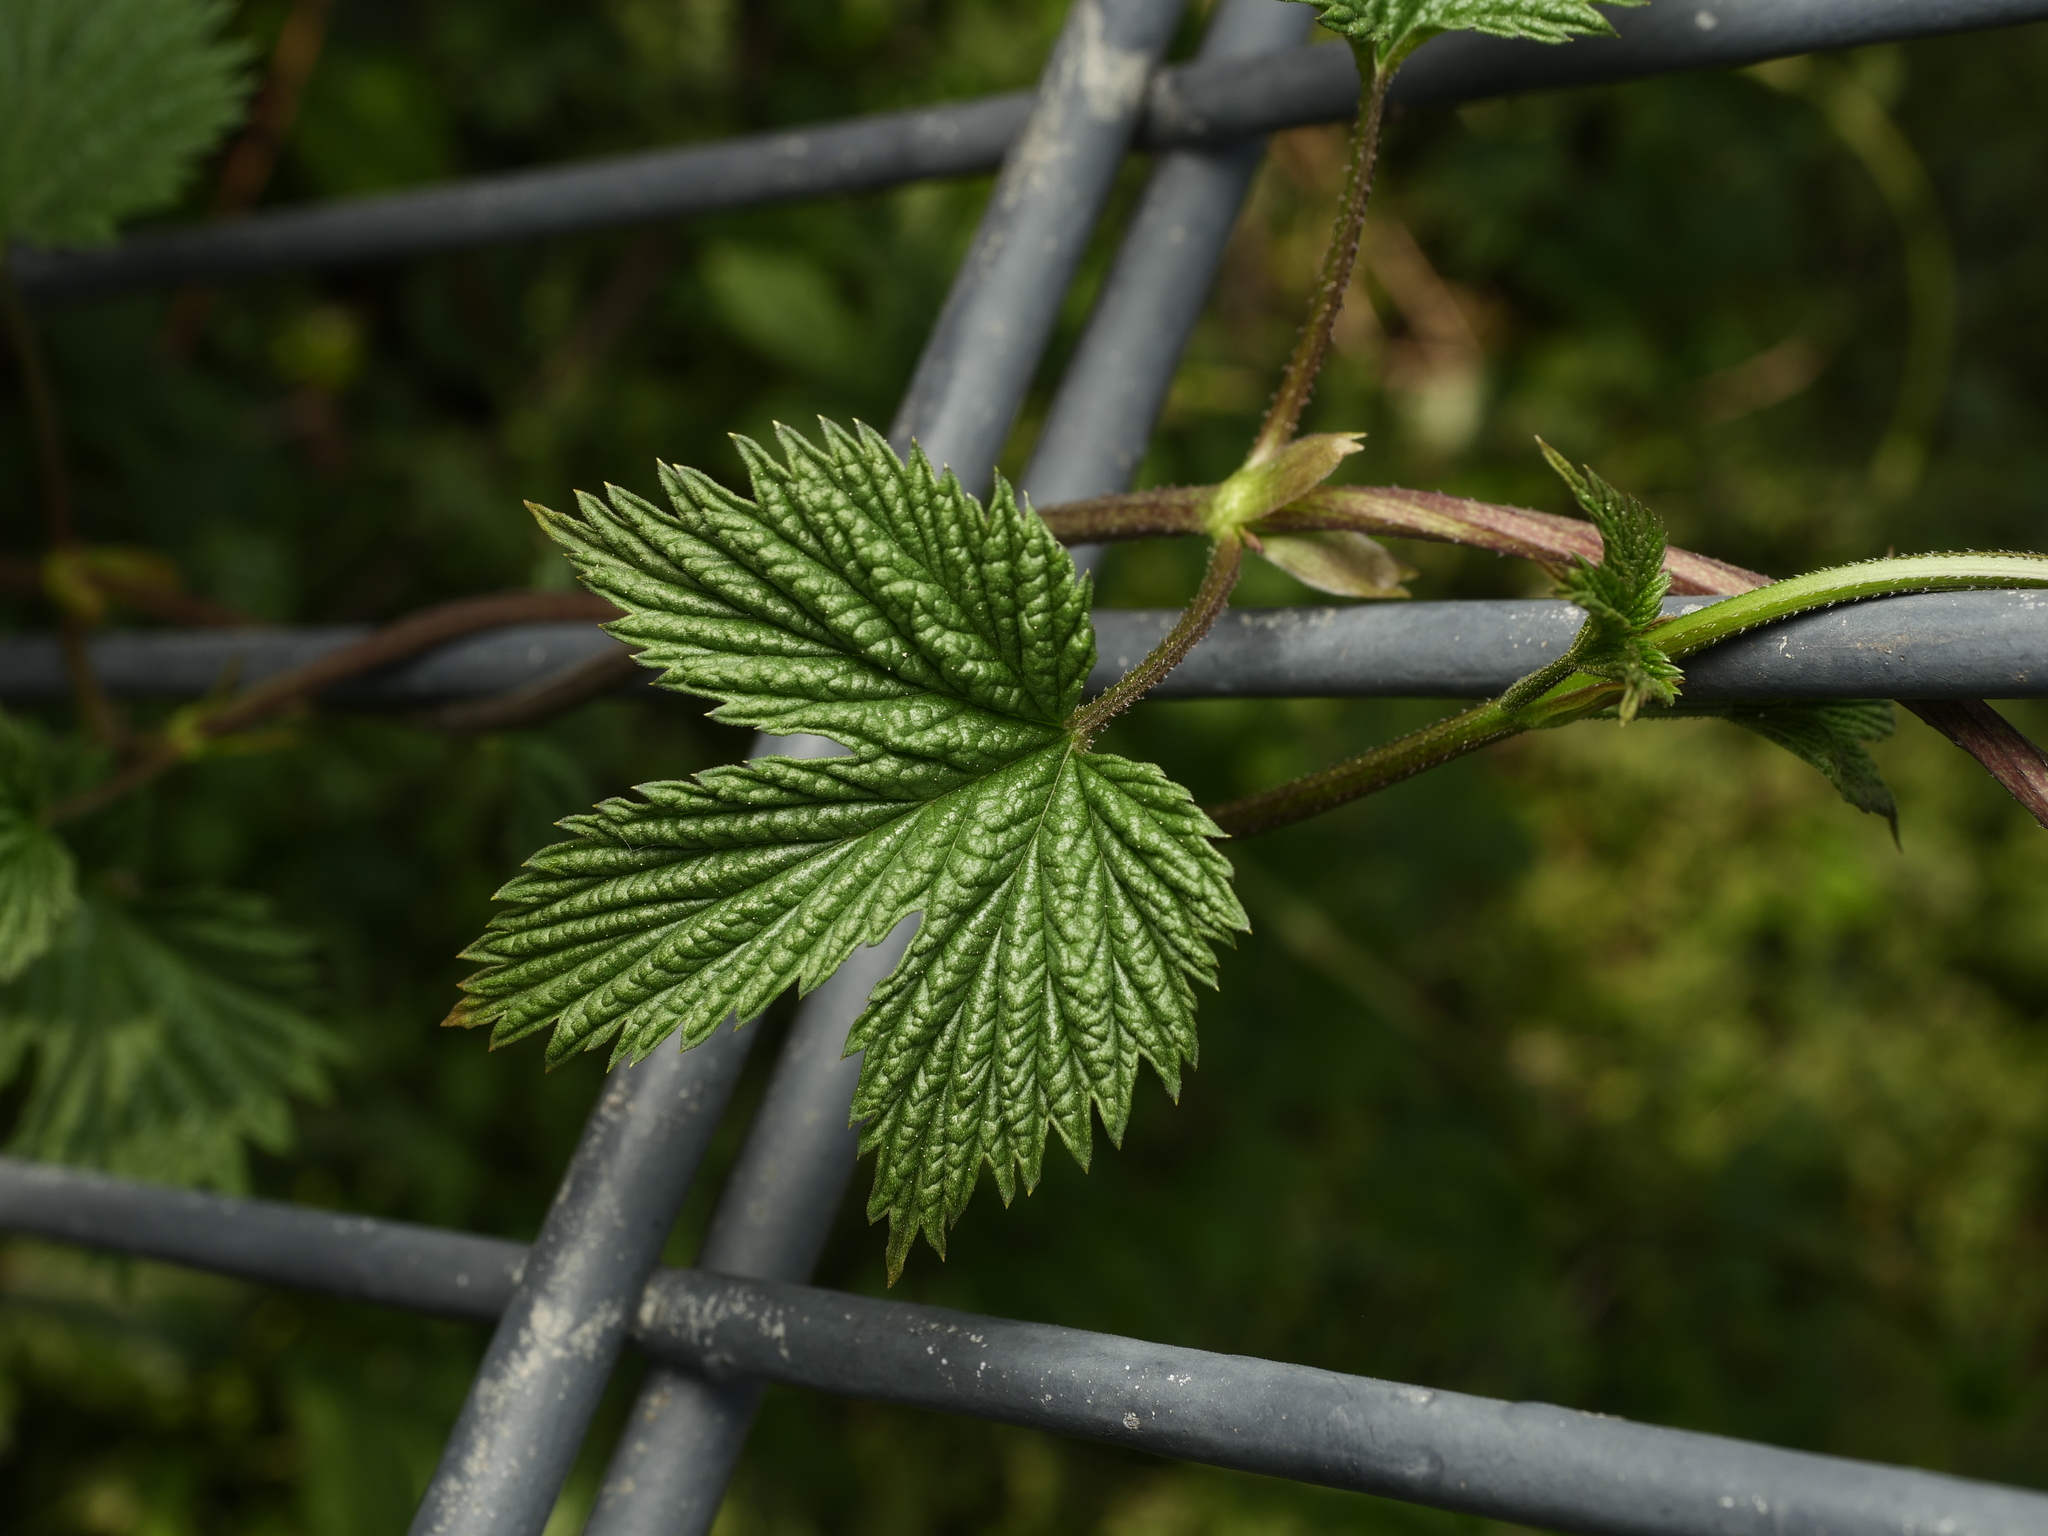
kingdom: Plantae
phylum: Tracheophyta
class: Magnoliopsida
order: Rosales
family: Cannabaceae
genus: Humulus
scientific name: Humulus lupulus
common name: Hop
